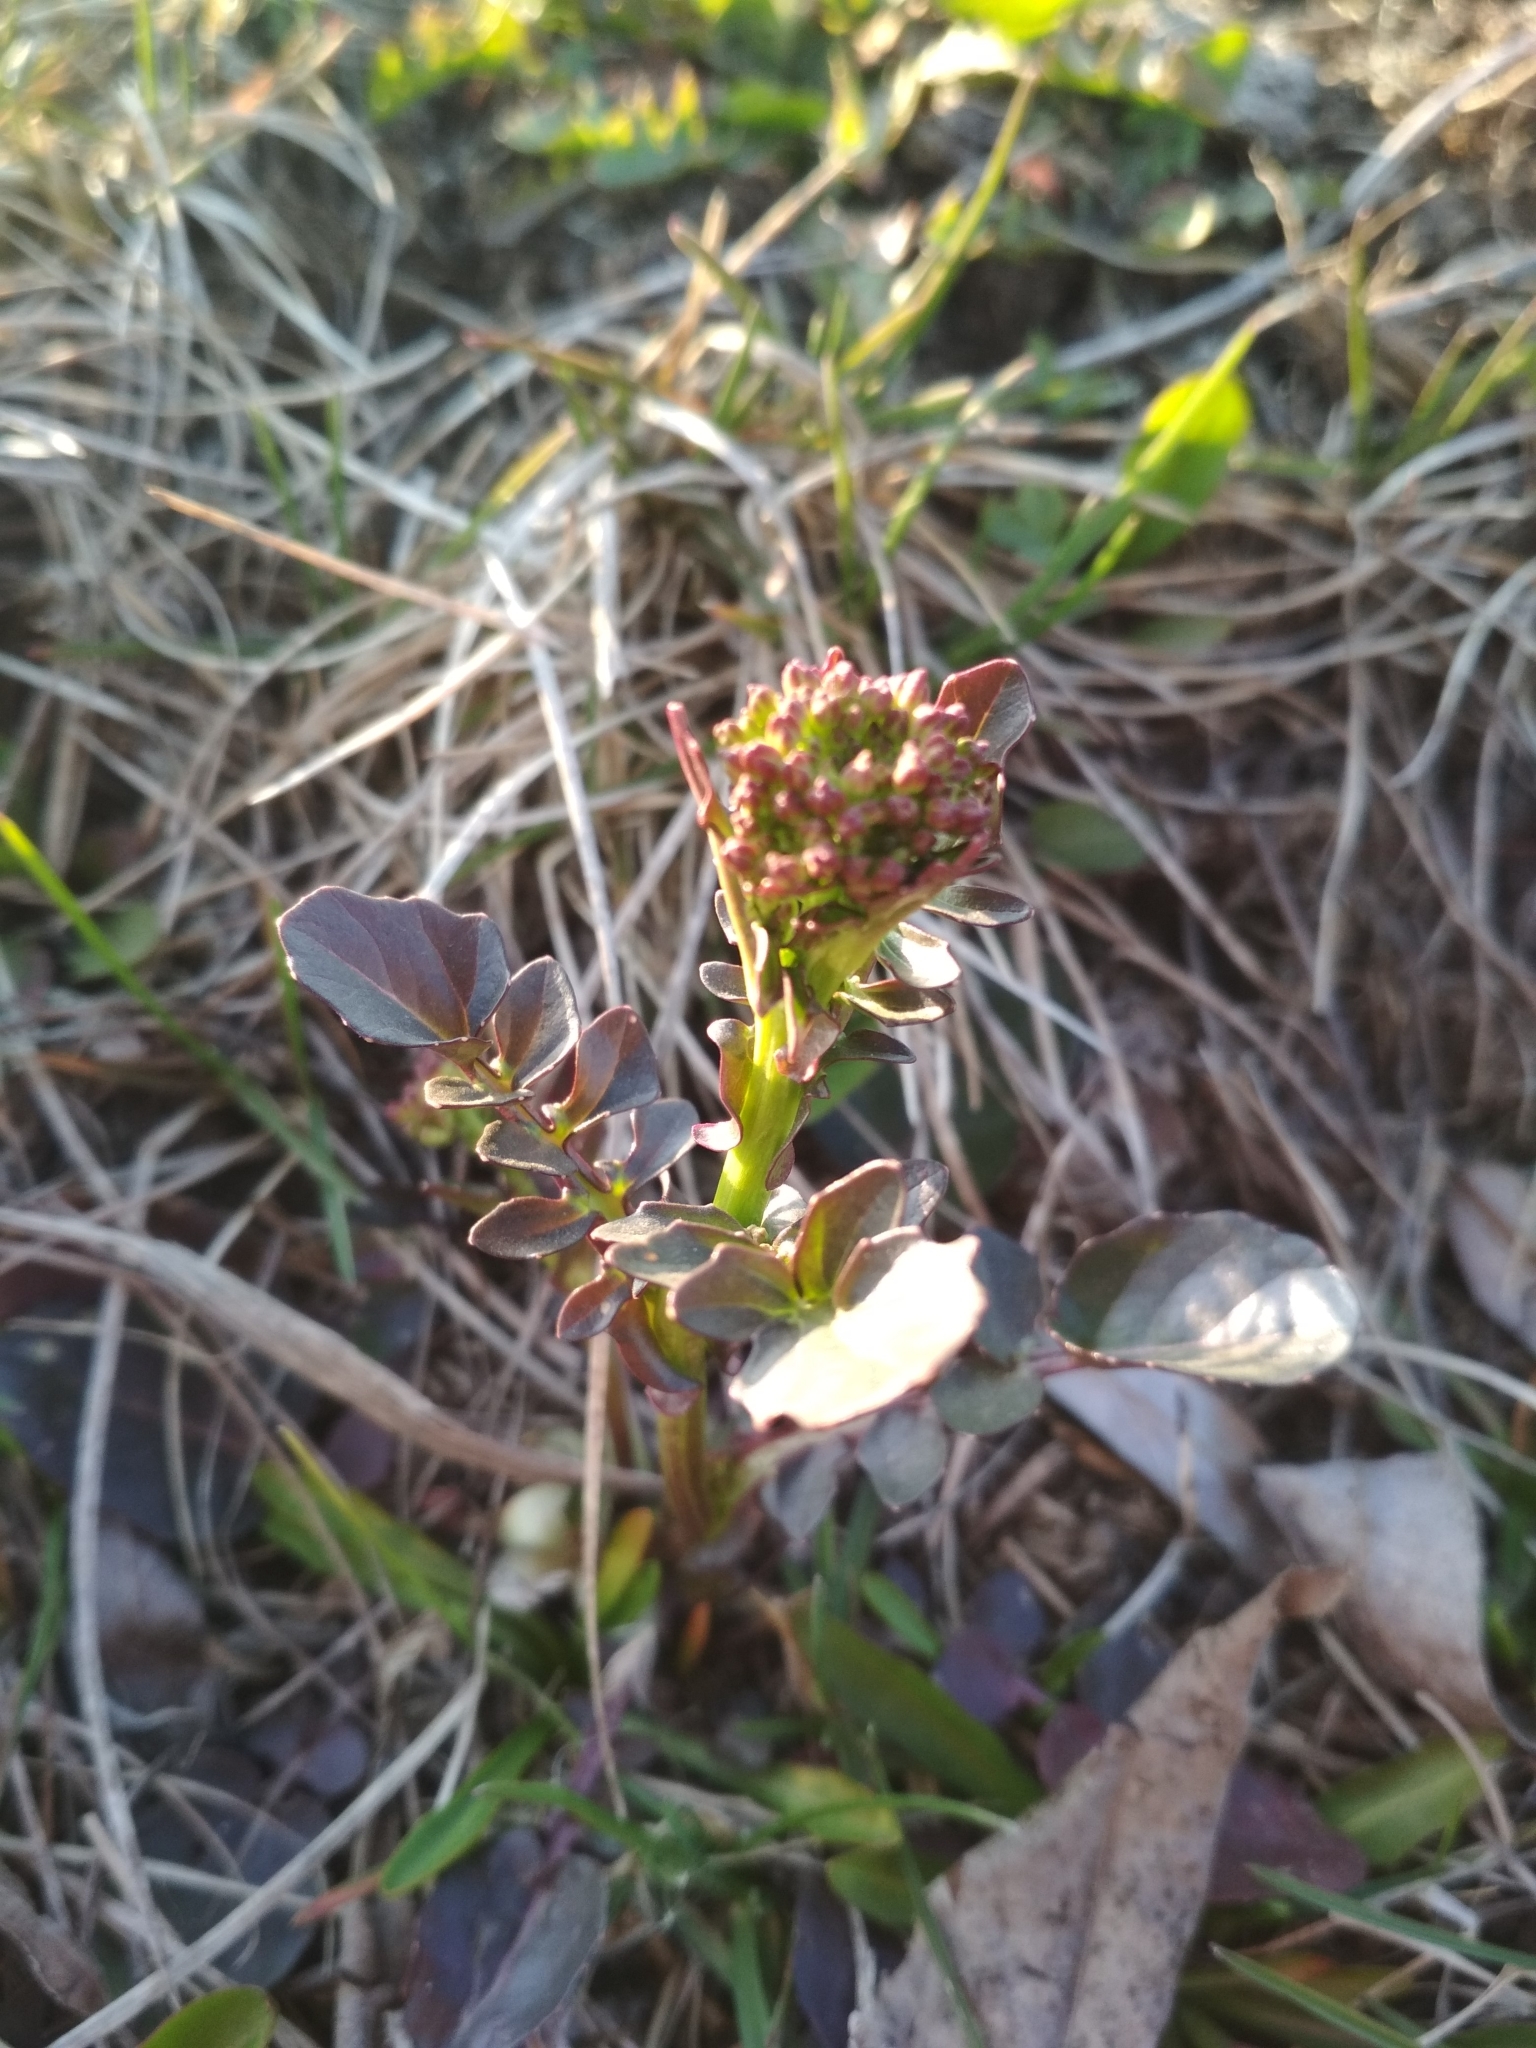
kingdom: Plantae
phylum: Tracheophyta
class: Magnoliopsida
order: Brassicales
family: Brassicaceae
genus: Barbarea
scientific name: Barbarea vulgaris
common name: Cressy-greens
